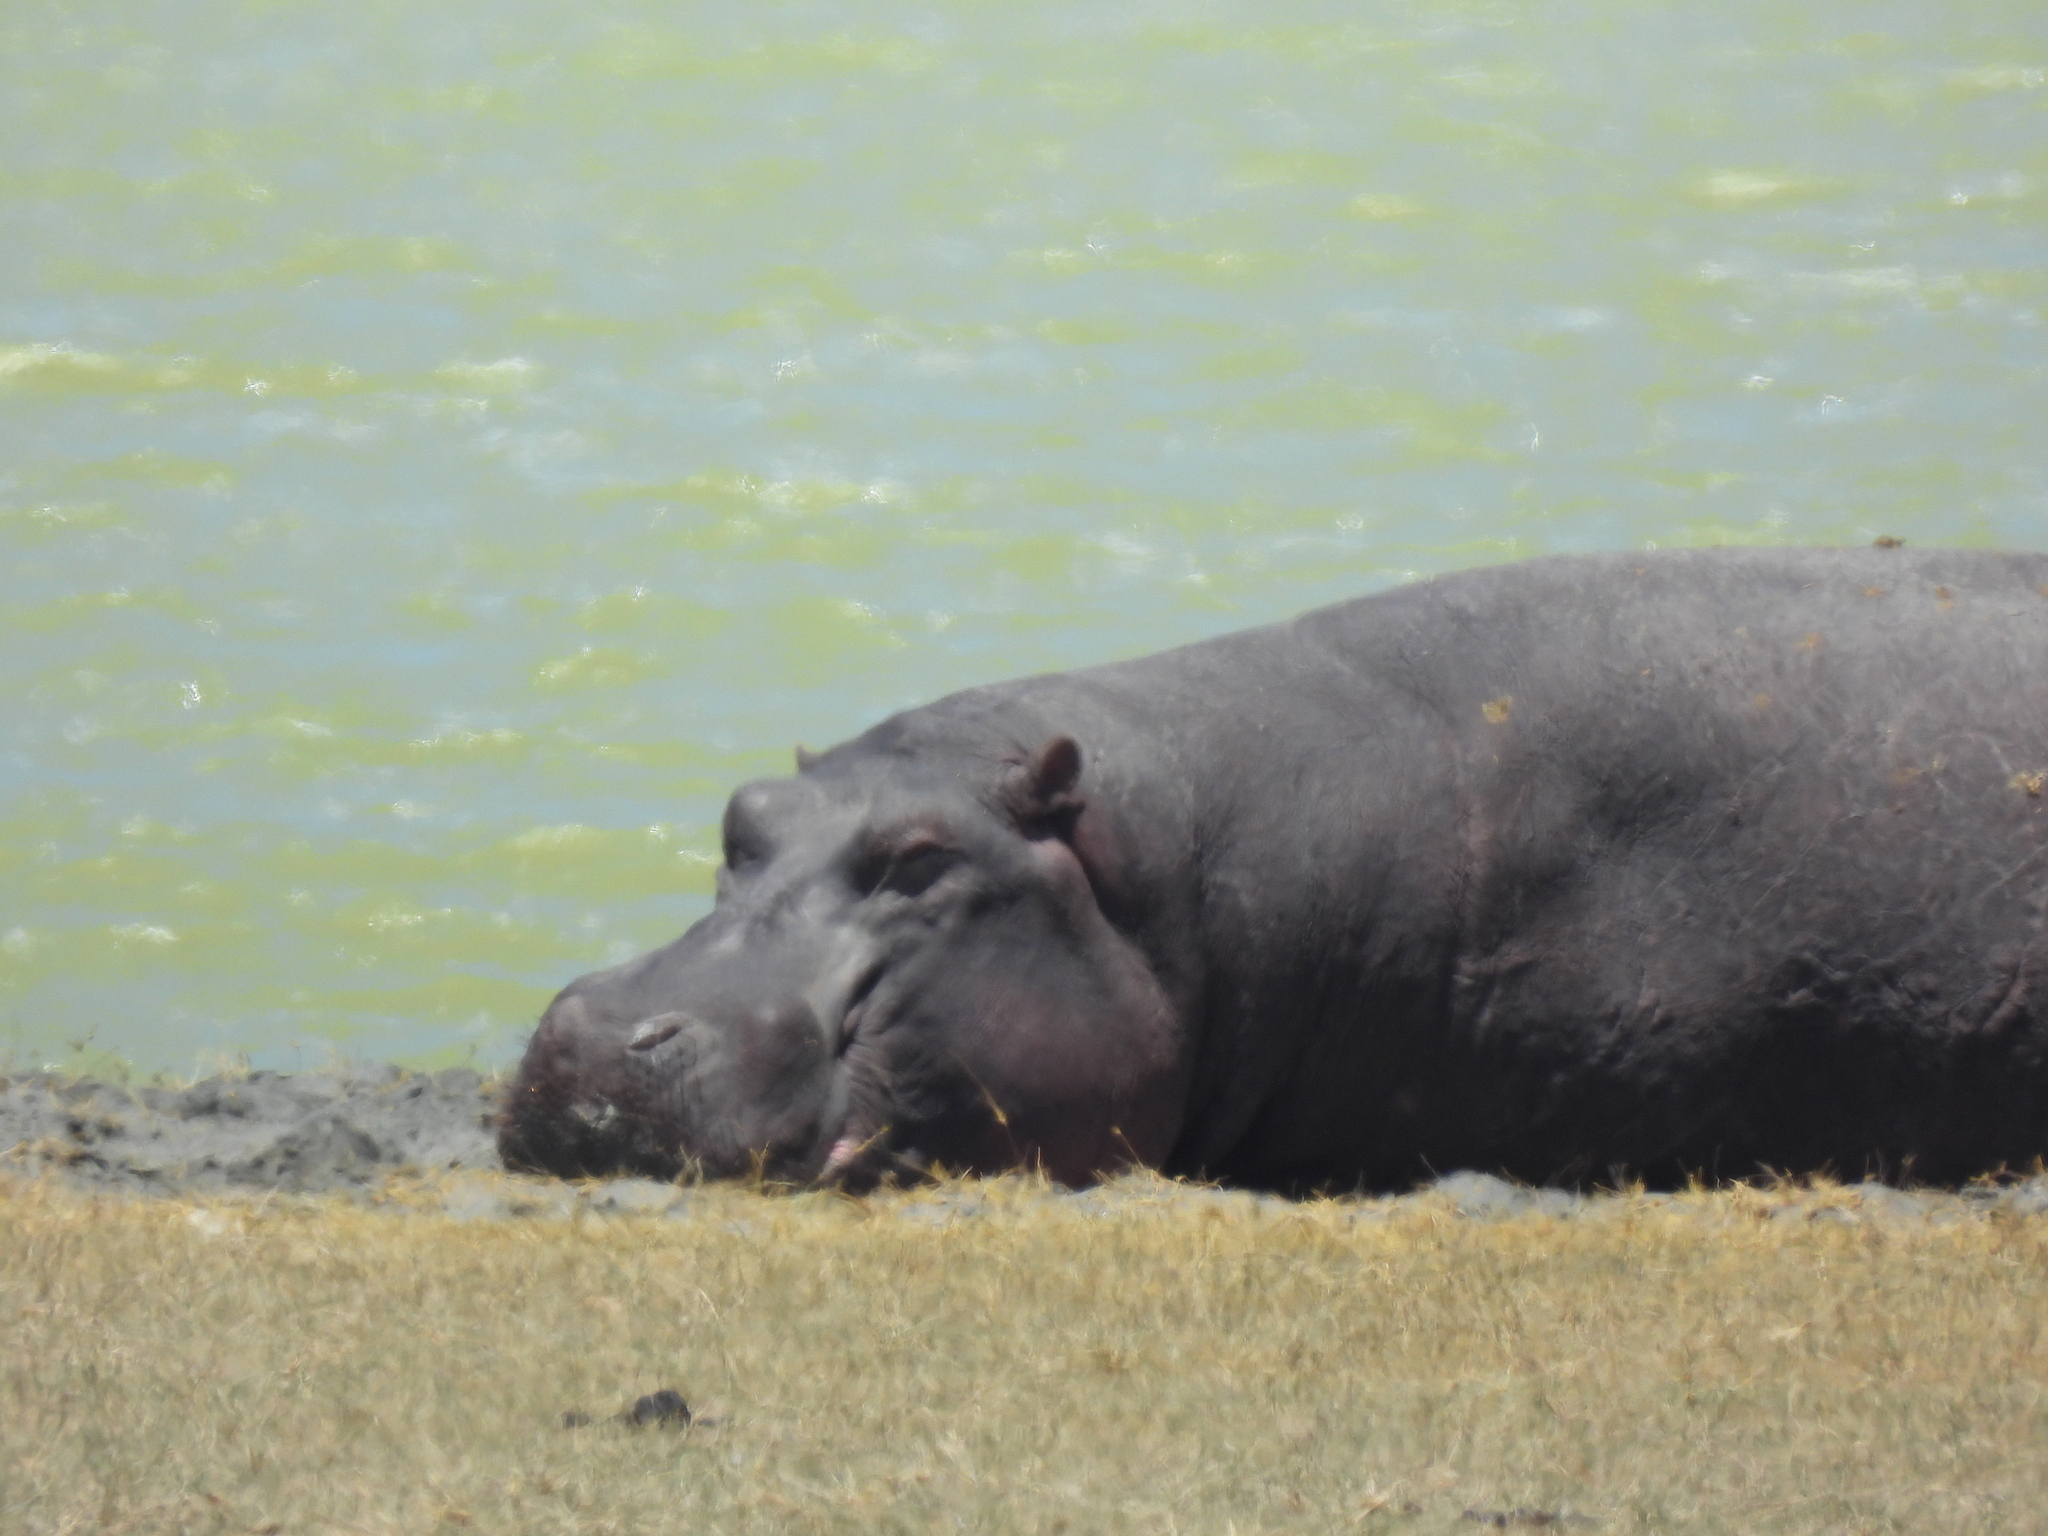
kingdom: Animalia
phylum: Chordata
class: Mammalia
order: Artiodactyla
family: Hippopotamidae
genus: Hippopotamus
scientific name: Hippopotamus amphibius
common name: Common hippopotamus
